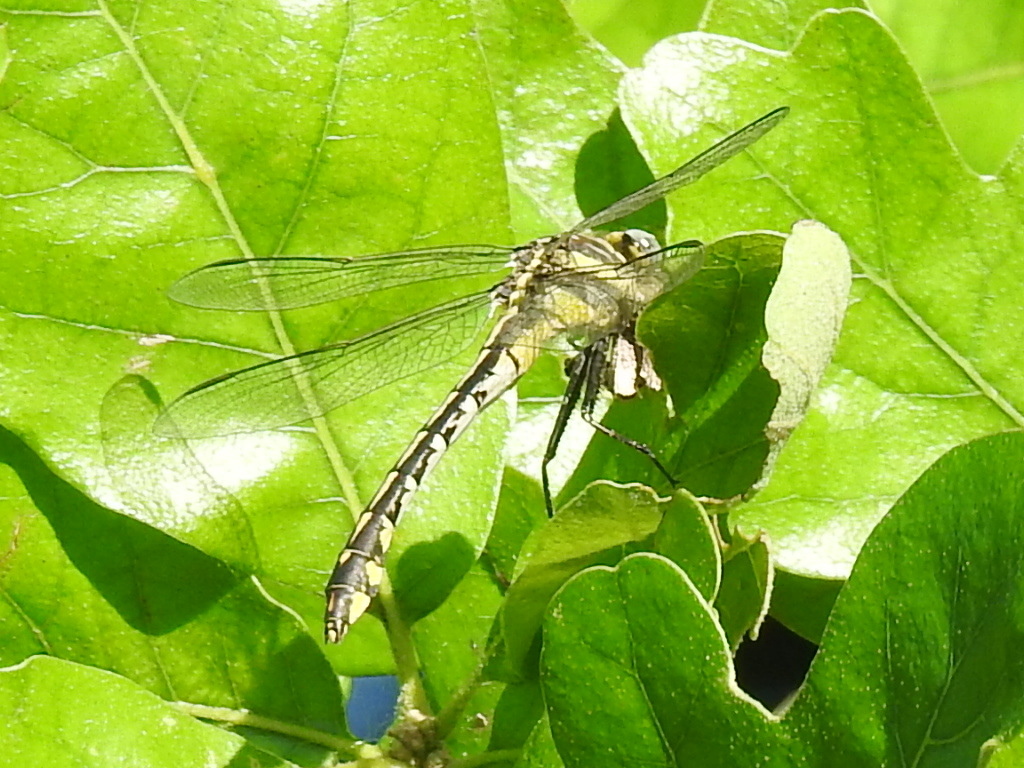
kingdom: Animalia
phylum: Arthropoda
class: Insecta
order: Odonata
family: Gomphidae
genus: Gomphurus
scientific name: Gomphurus externus
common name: Plains clubtail
